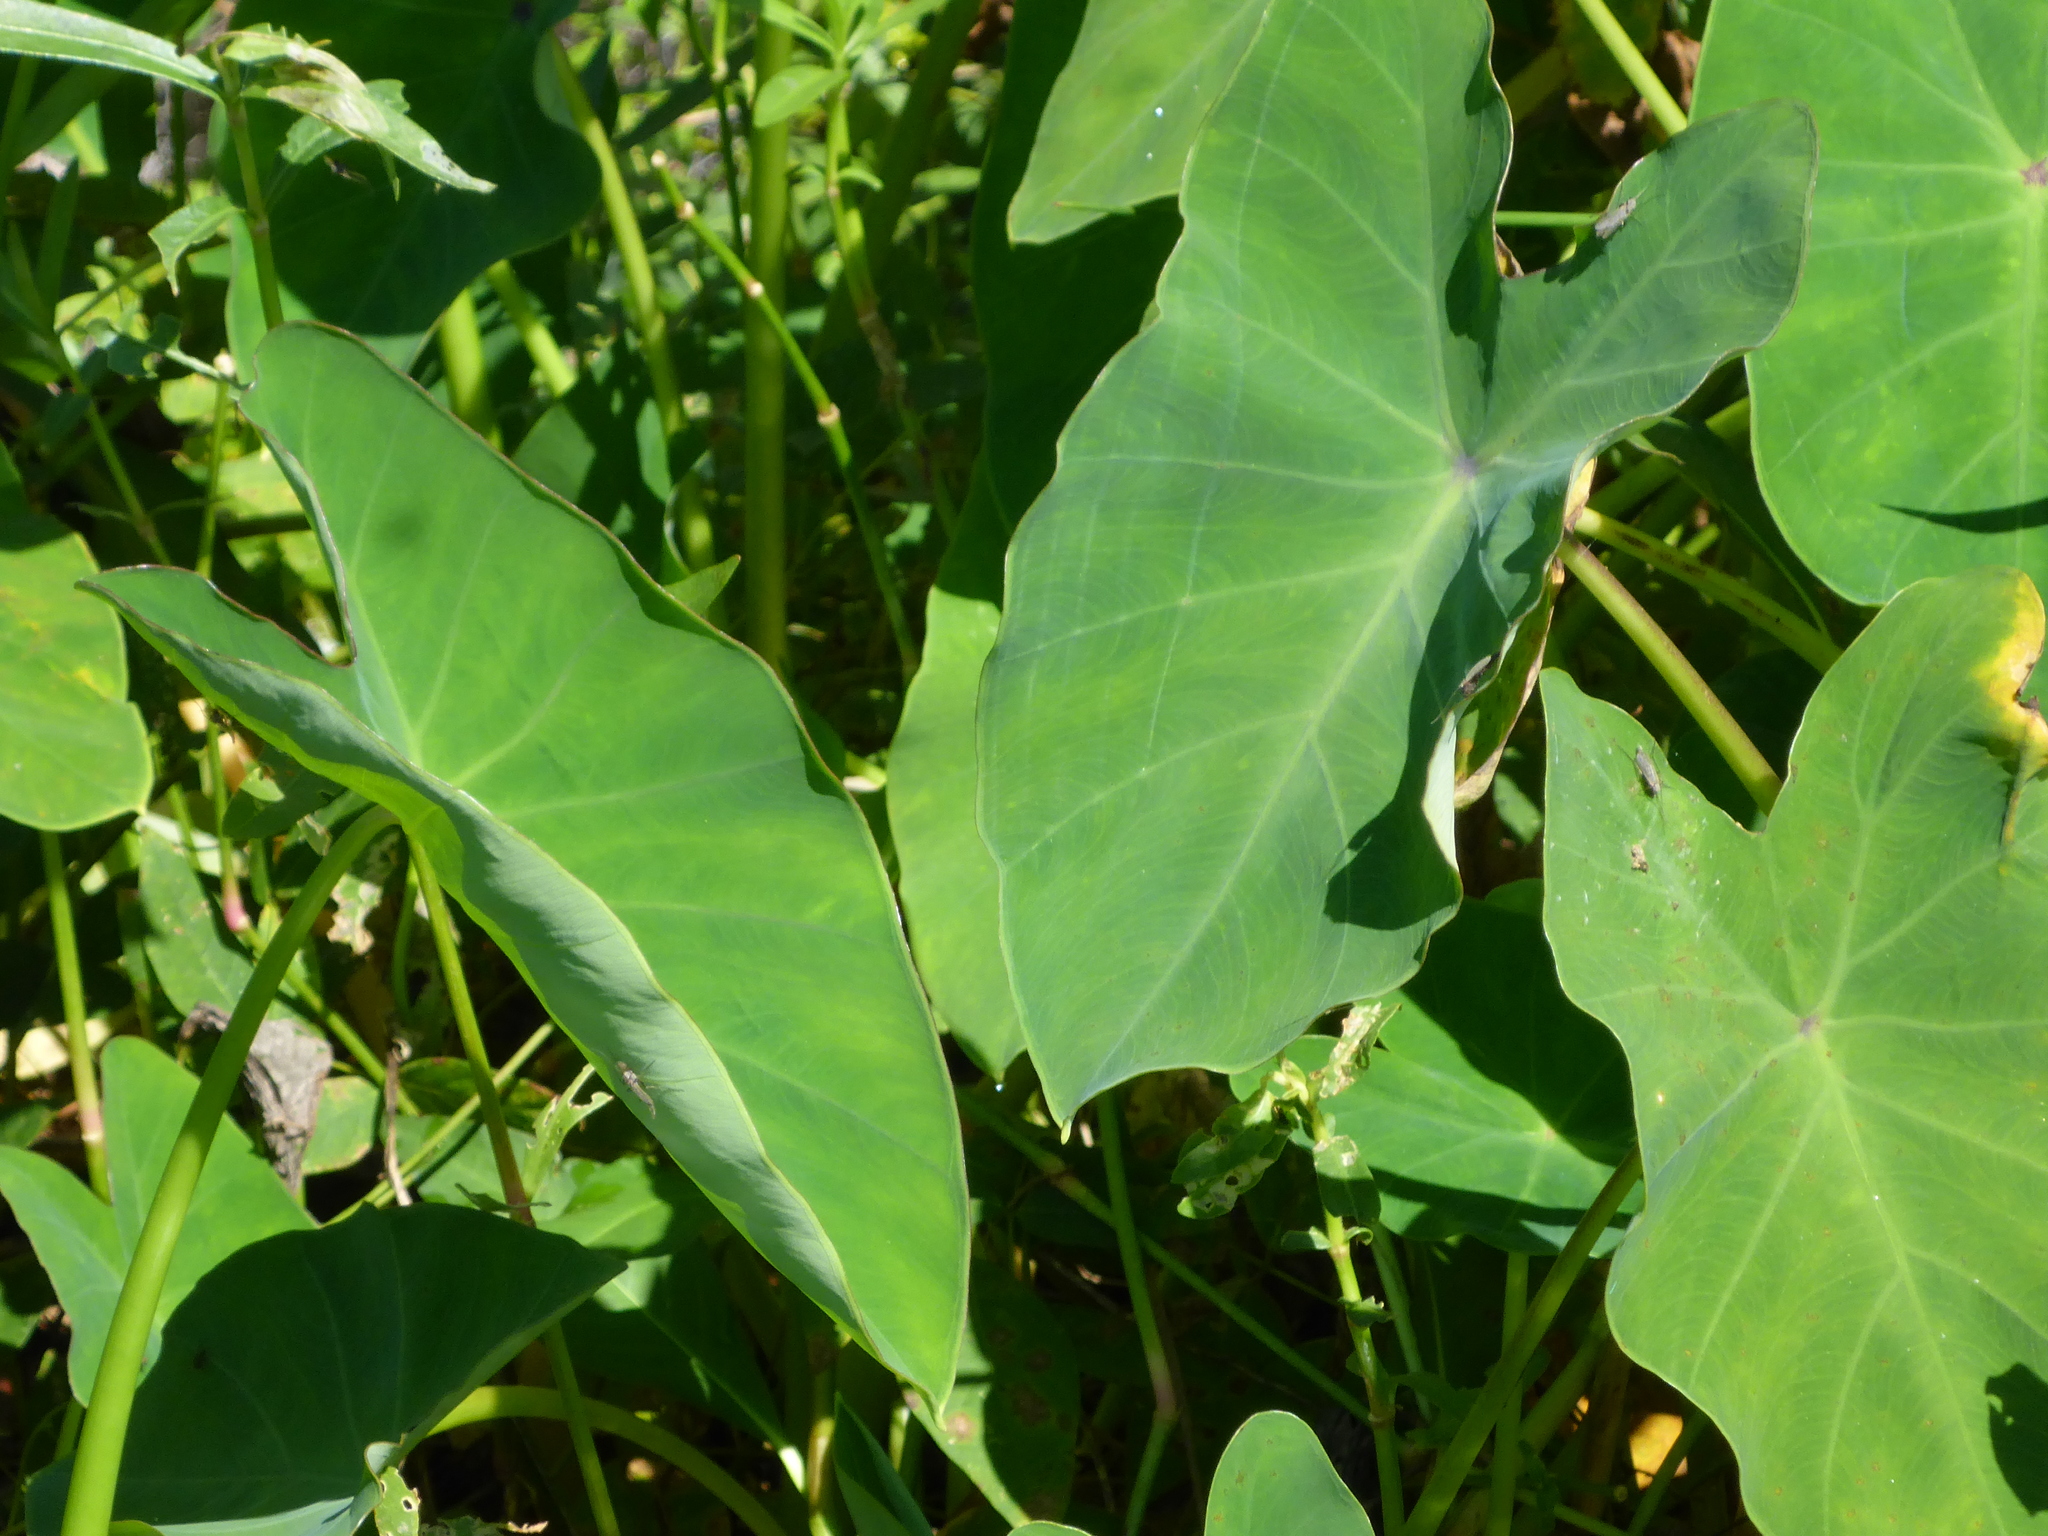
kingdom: Plantae
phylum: Tracheophyta
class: Liliopsida
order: Alismatales
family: Araceae
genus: Colocasia
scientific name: Colocasia esculenta
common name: Taro
